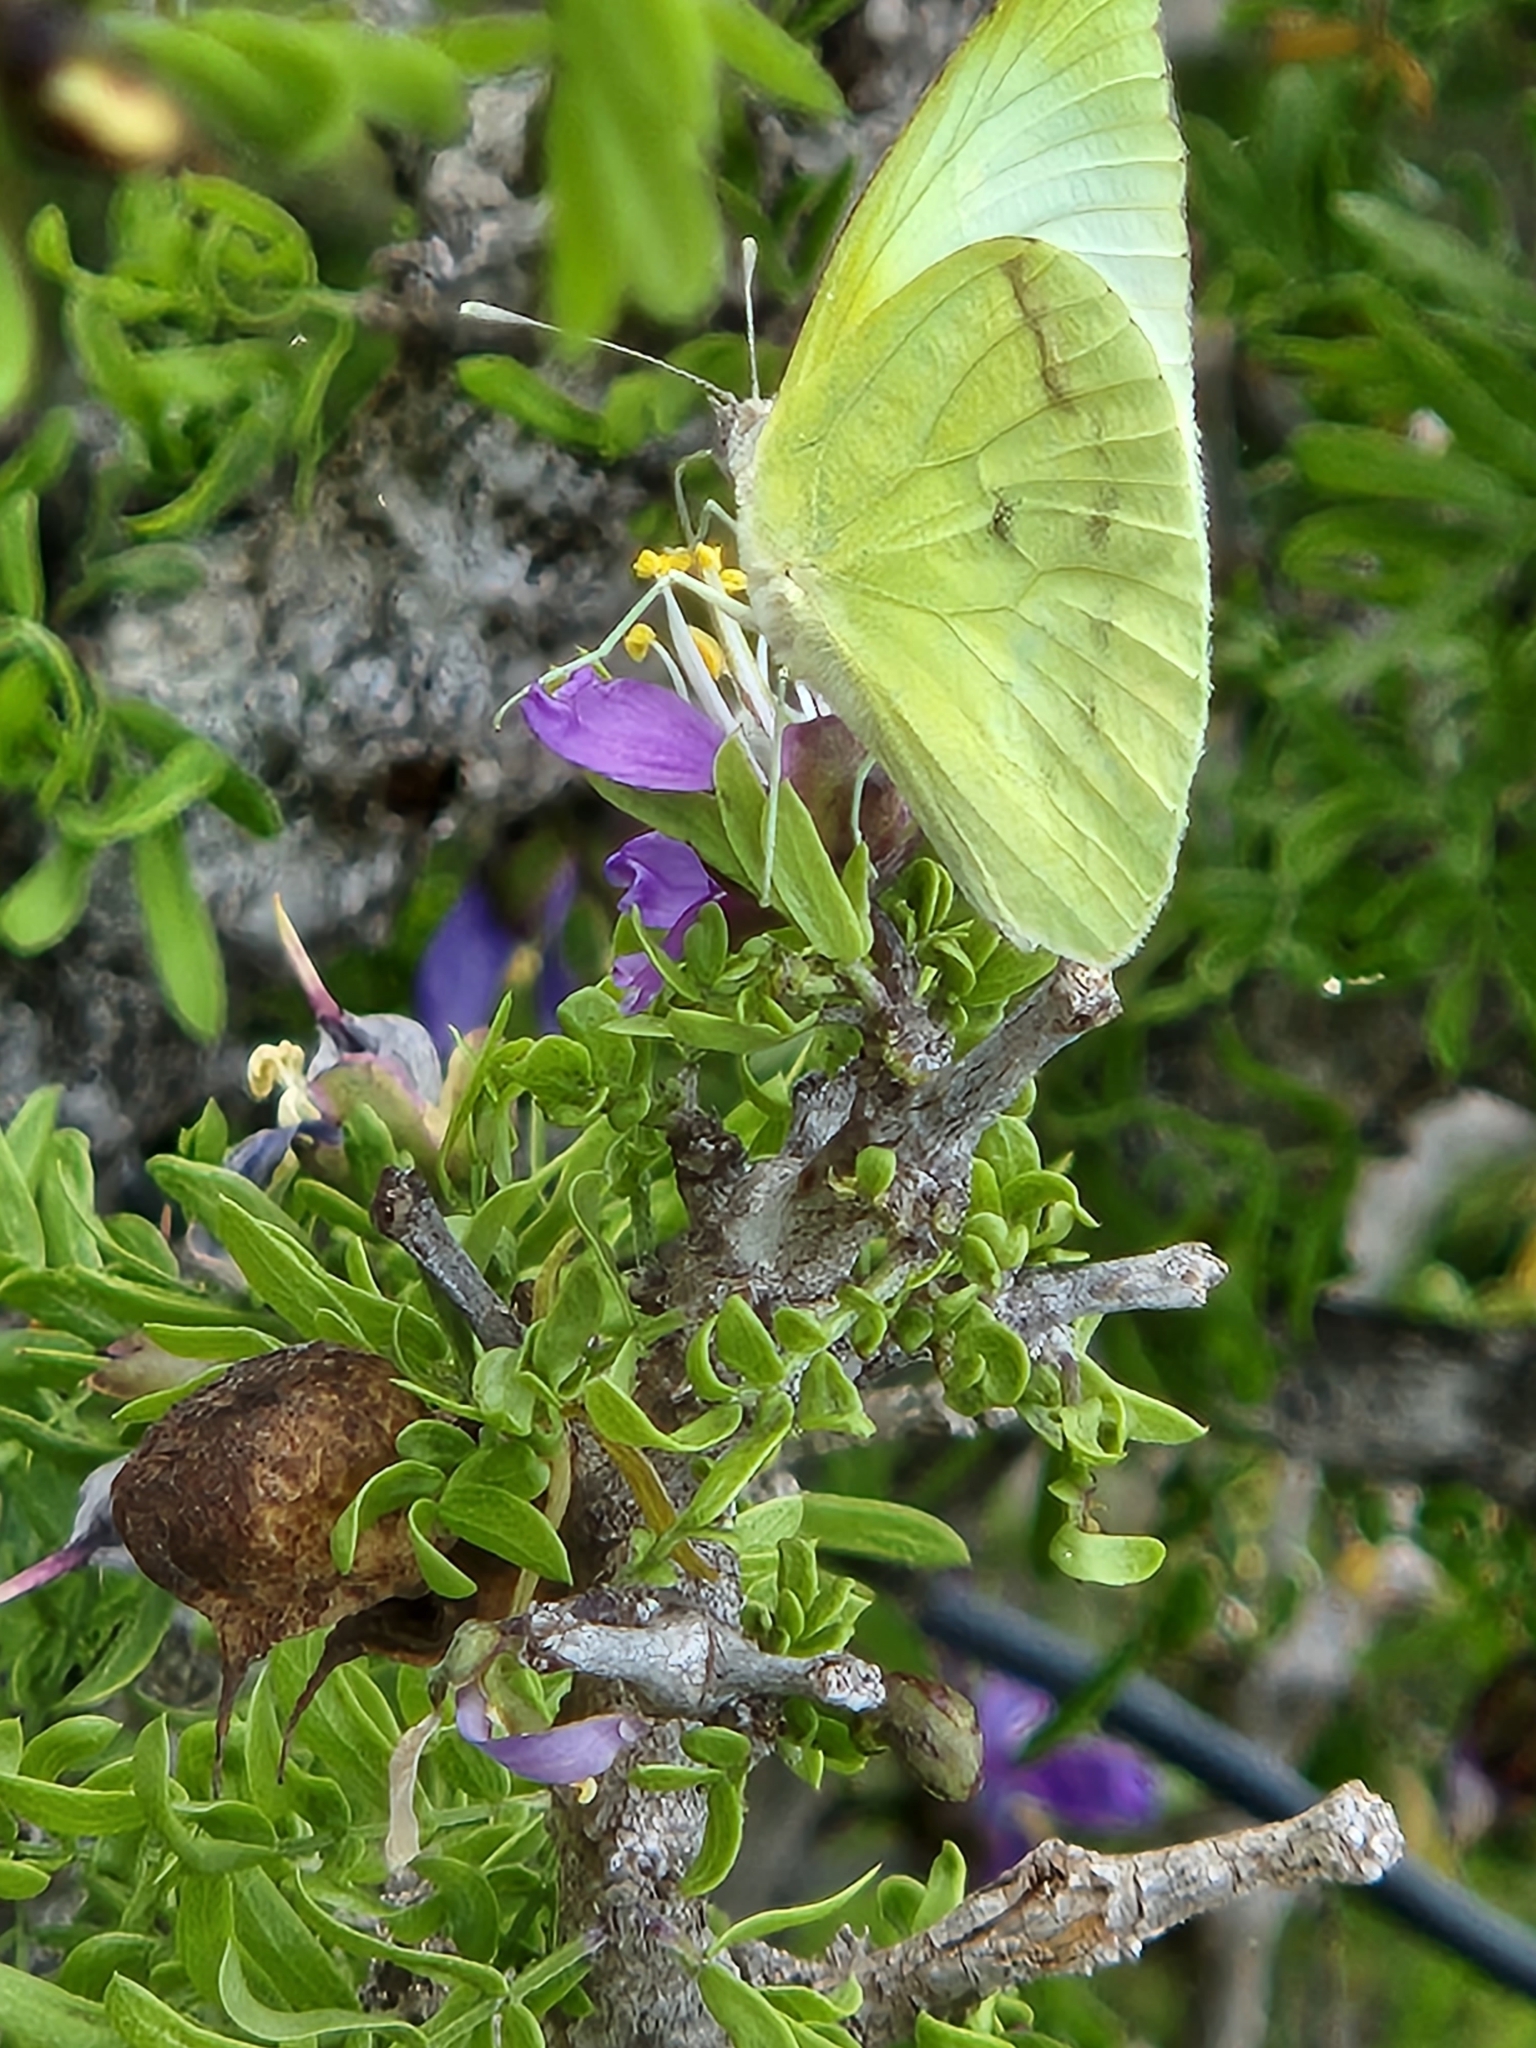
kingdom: Animalia
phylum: Arthropoda
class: Insecta
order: Lepidoptera
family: Pieridae
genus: Kricogonia
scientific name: Kricogonia lyside
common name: Guayacan sulphur,
